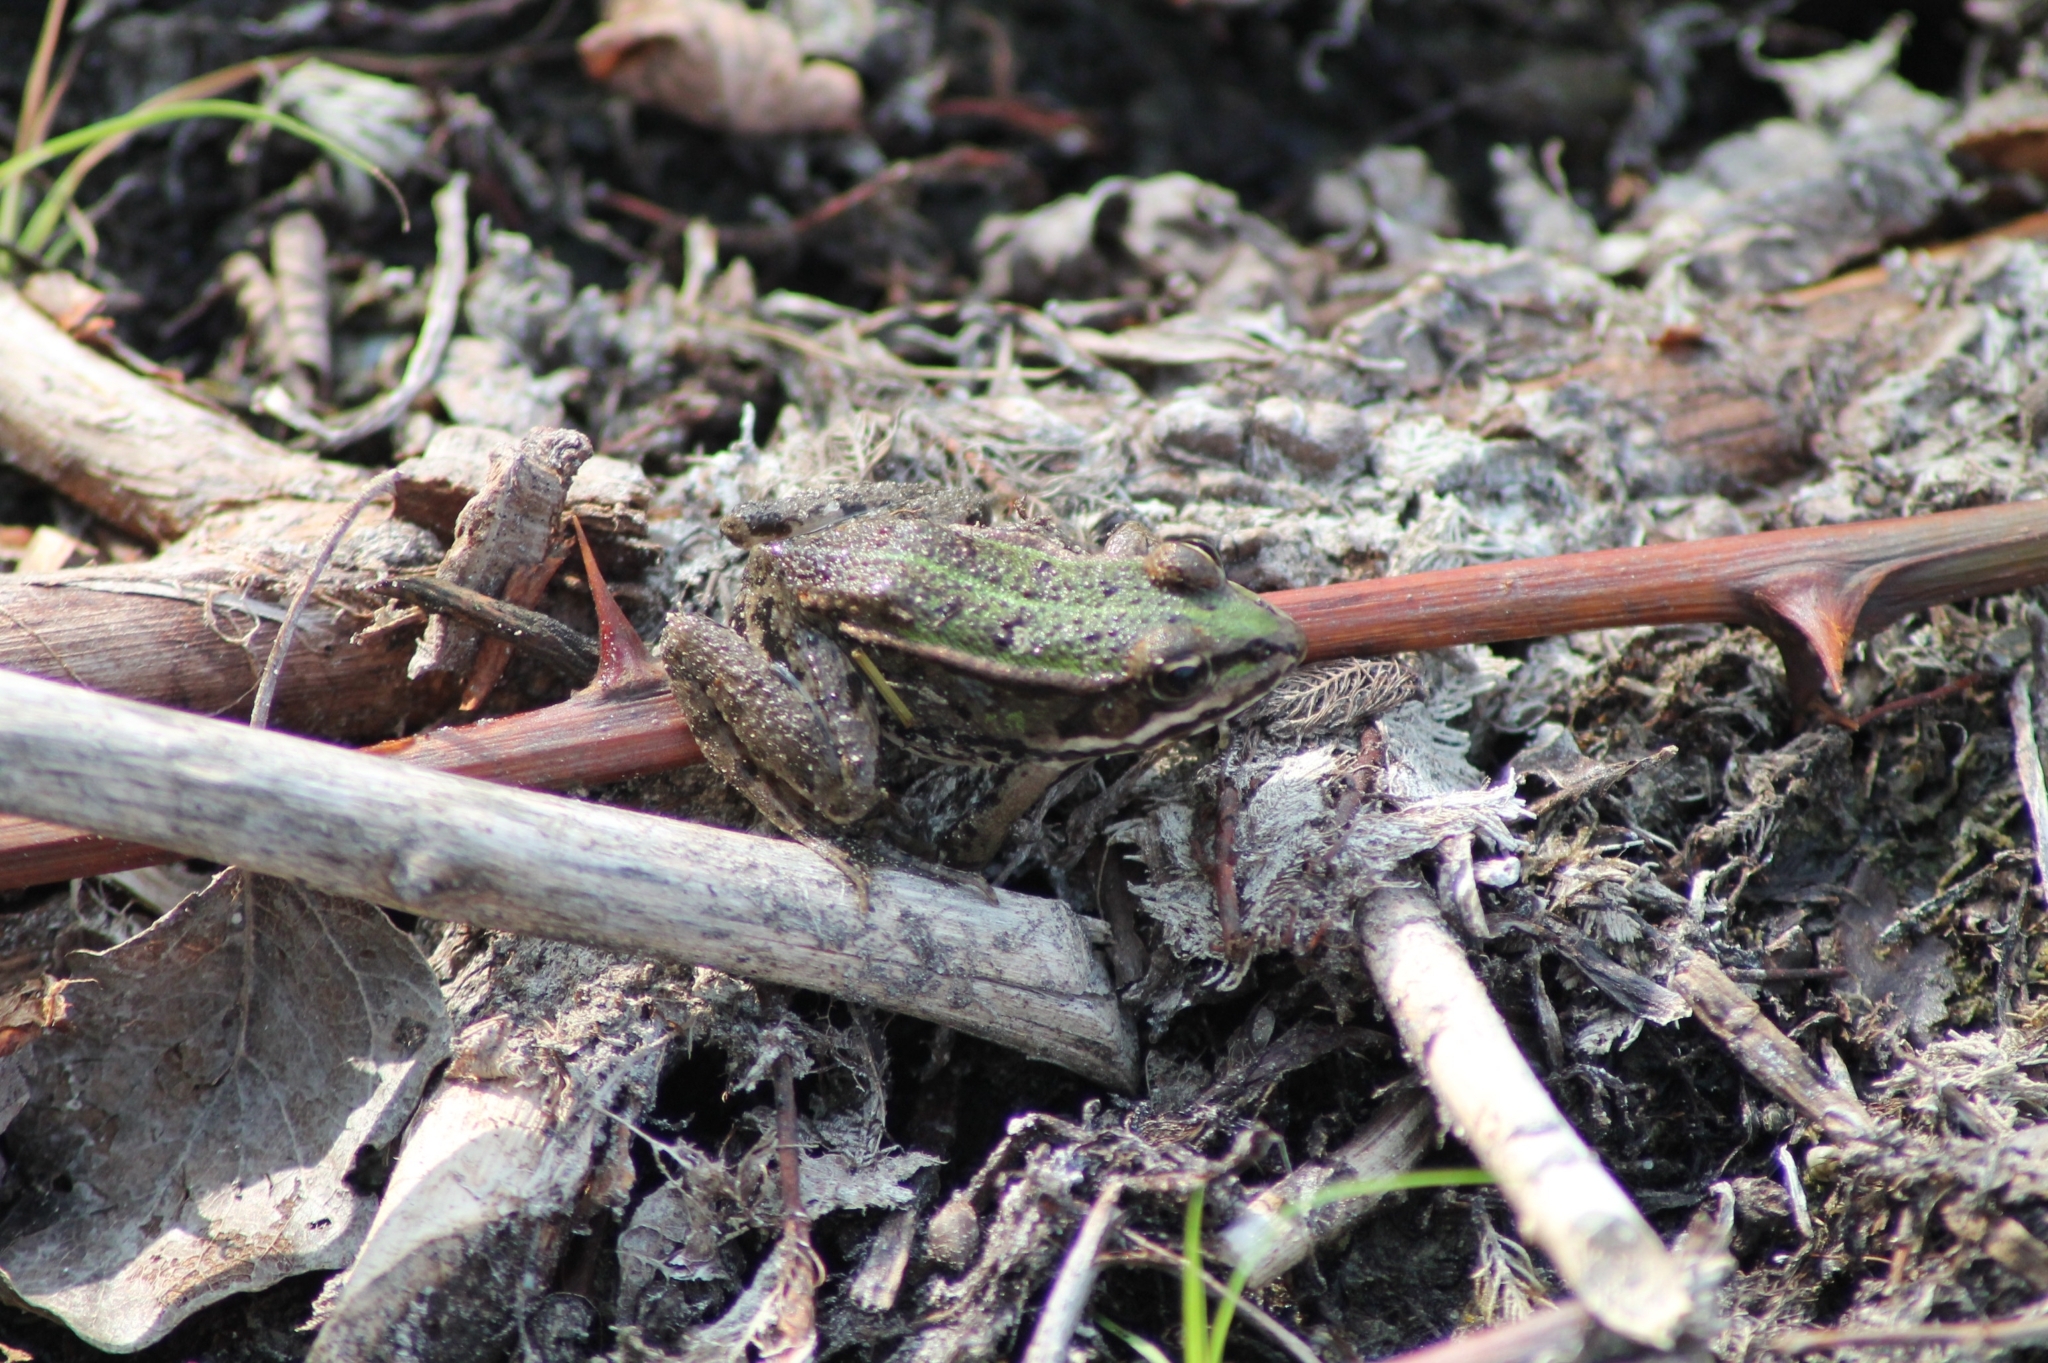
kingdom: Animalia
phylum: Chordata
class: Amphibia
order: Anura
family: Ranidae
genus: Pelophylax
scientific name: Pelophylax
